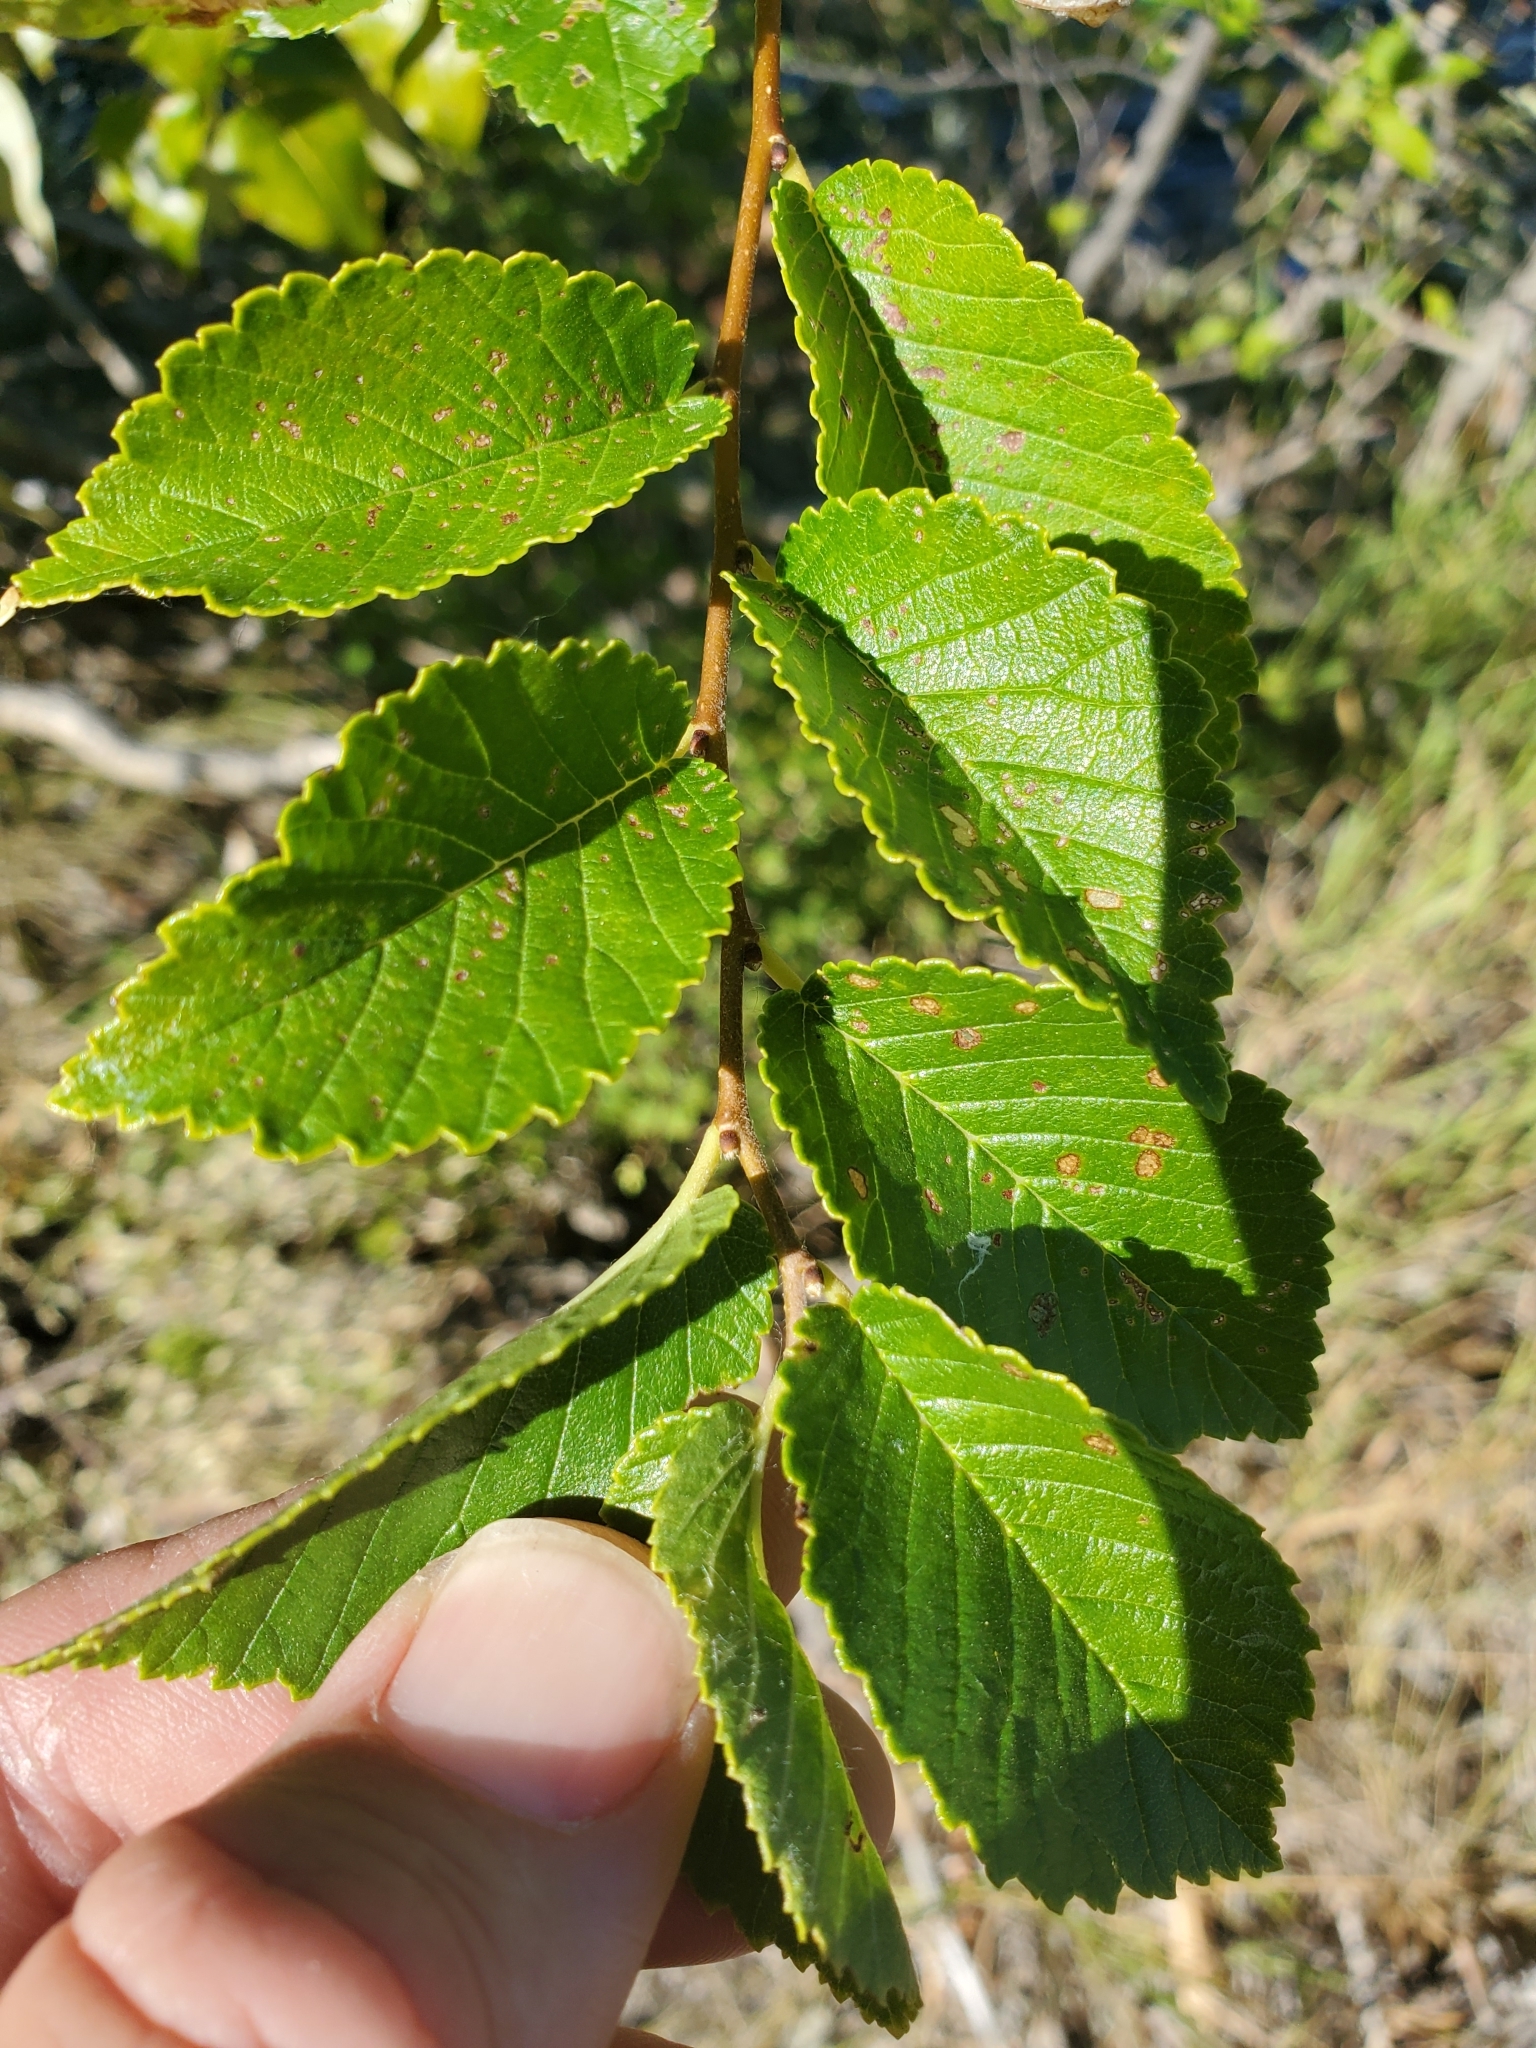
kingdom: Plantae
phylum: Tracheophyta
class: Magnoliopsida
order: Rosales
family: Ulmaceae
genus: Ulmus
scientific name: Ulmus pumila
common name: Siberian elm
